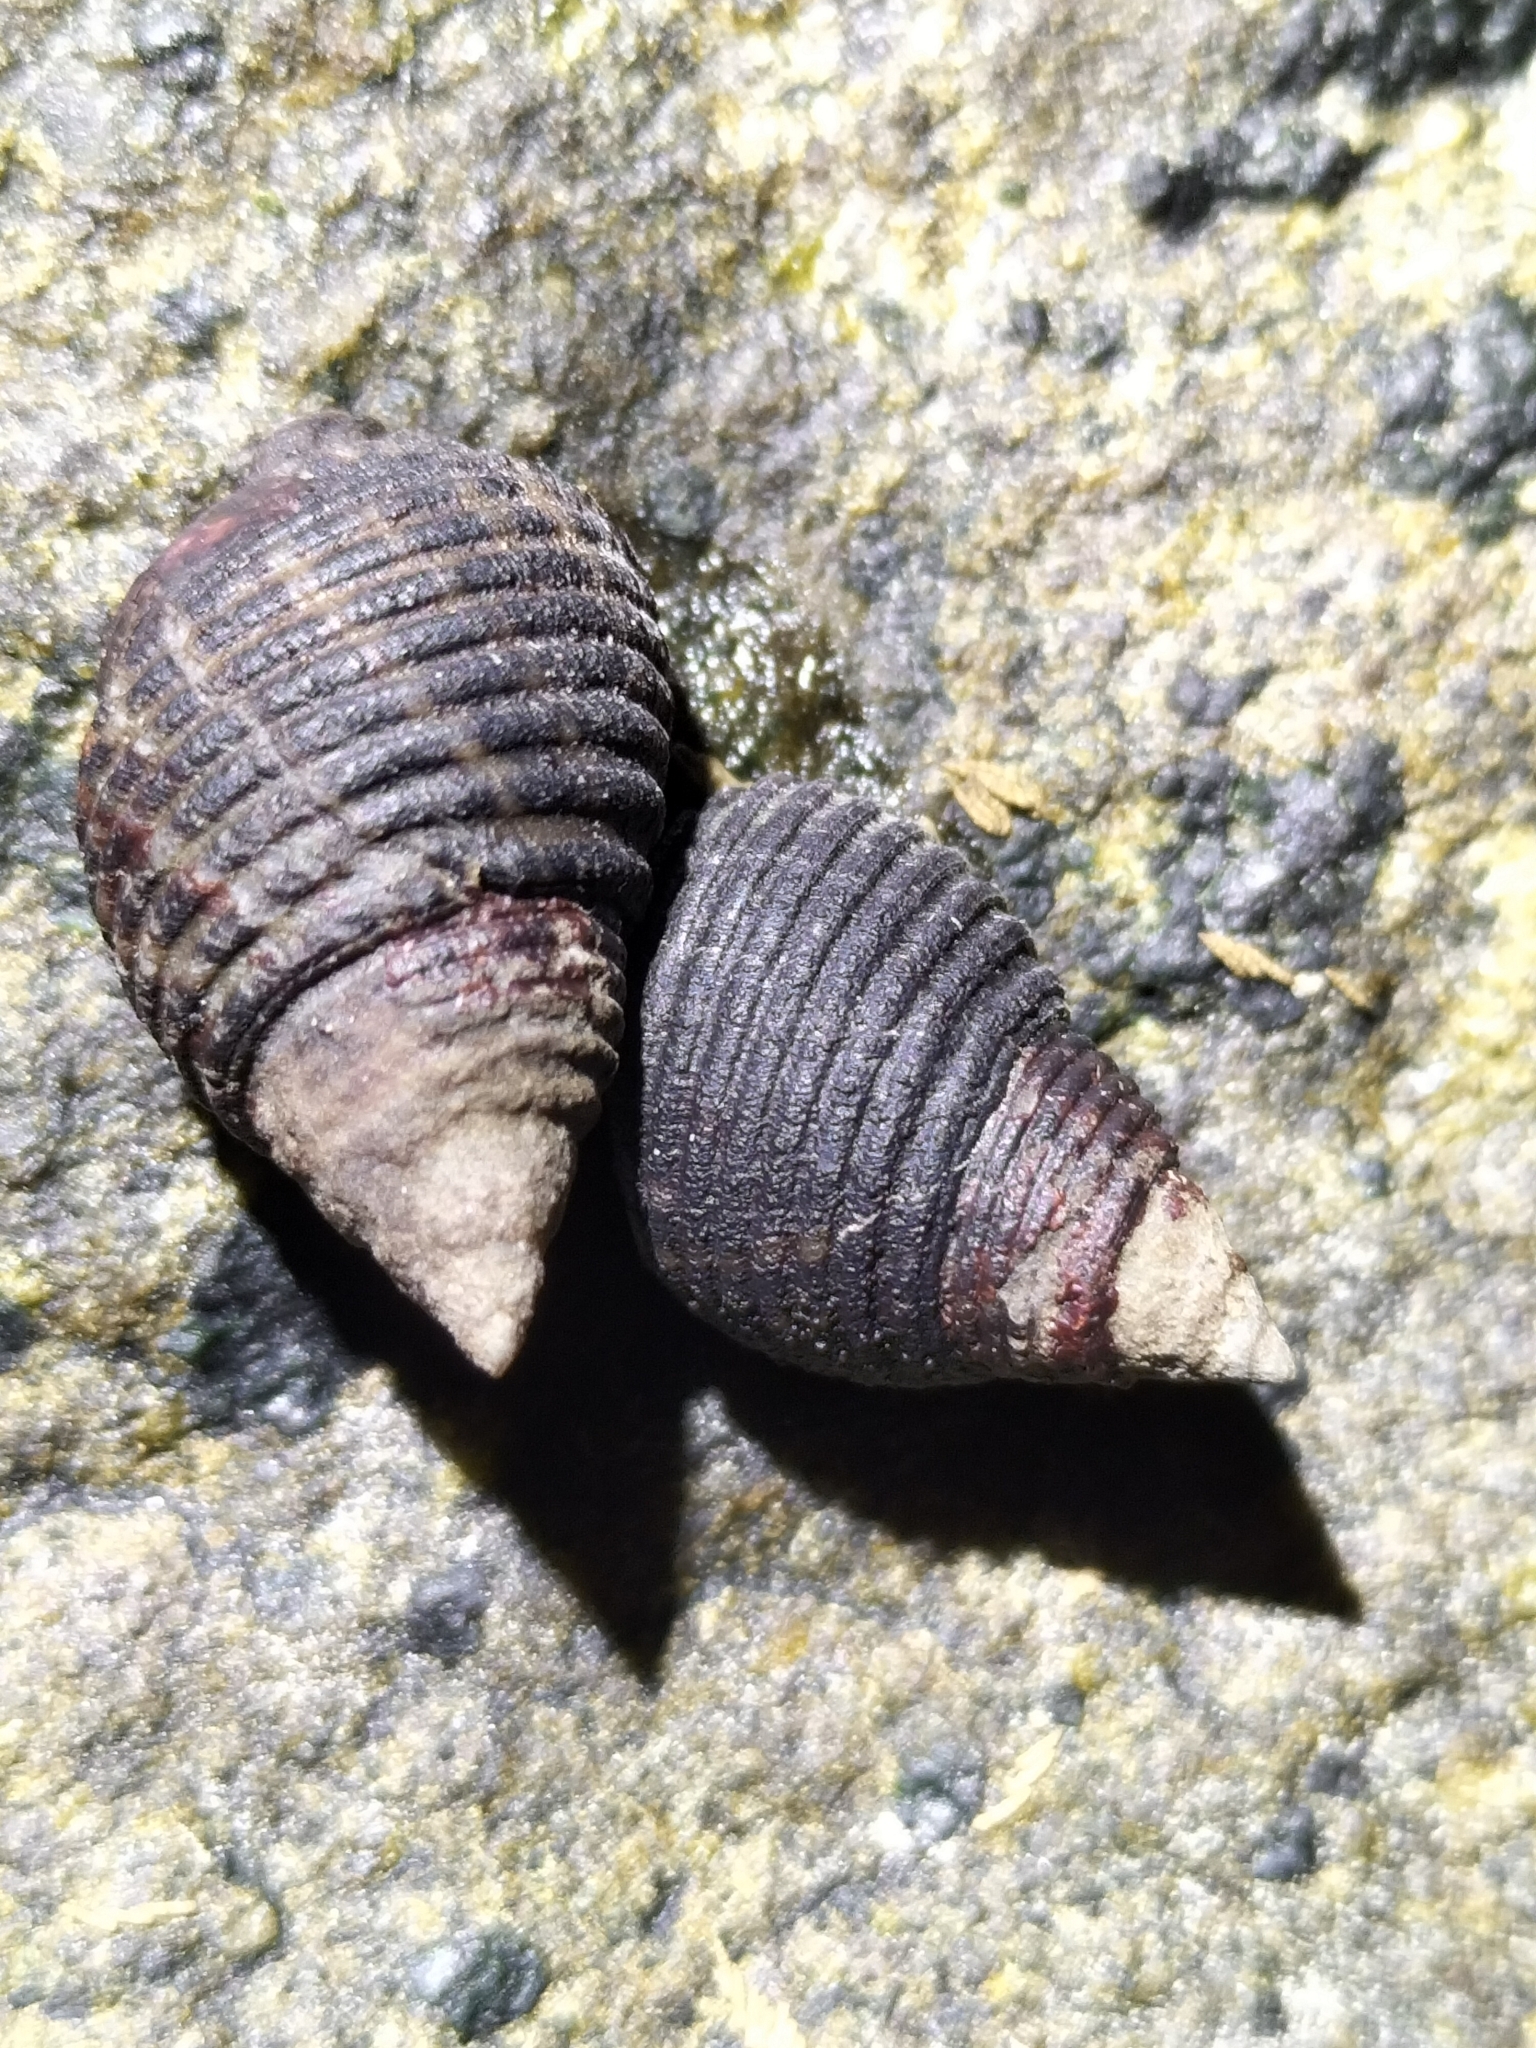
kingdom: Animalia
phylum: Mollusca
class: Gastropoda
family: Planaxidae
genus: Planaxis
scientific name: Planaxis sulcatus
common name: Furrowed planaxis
